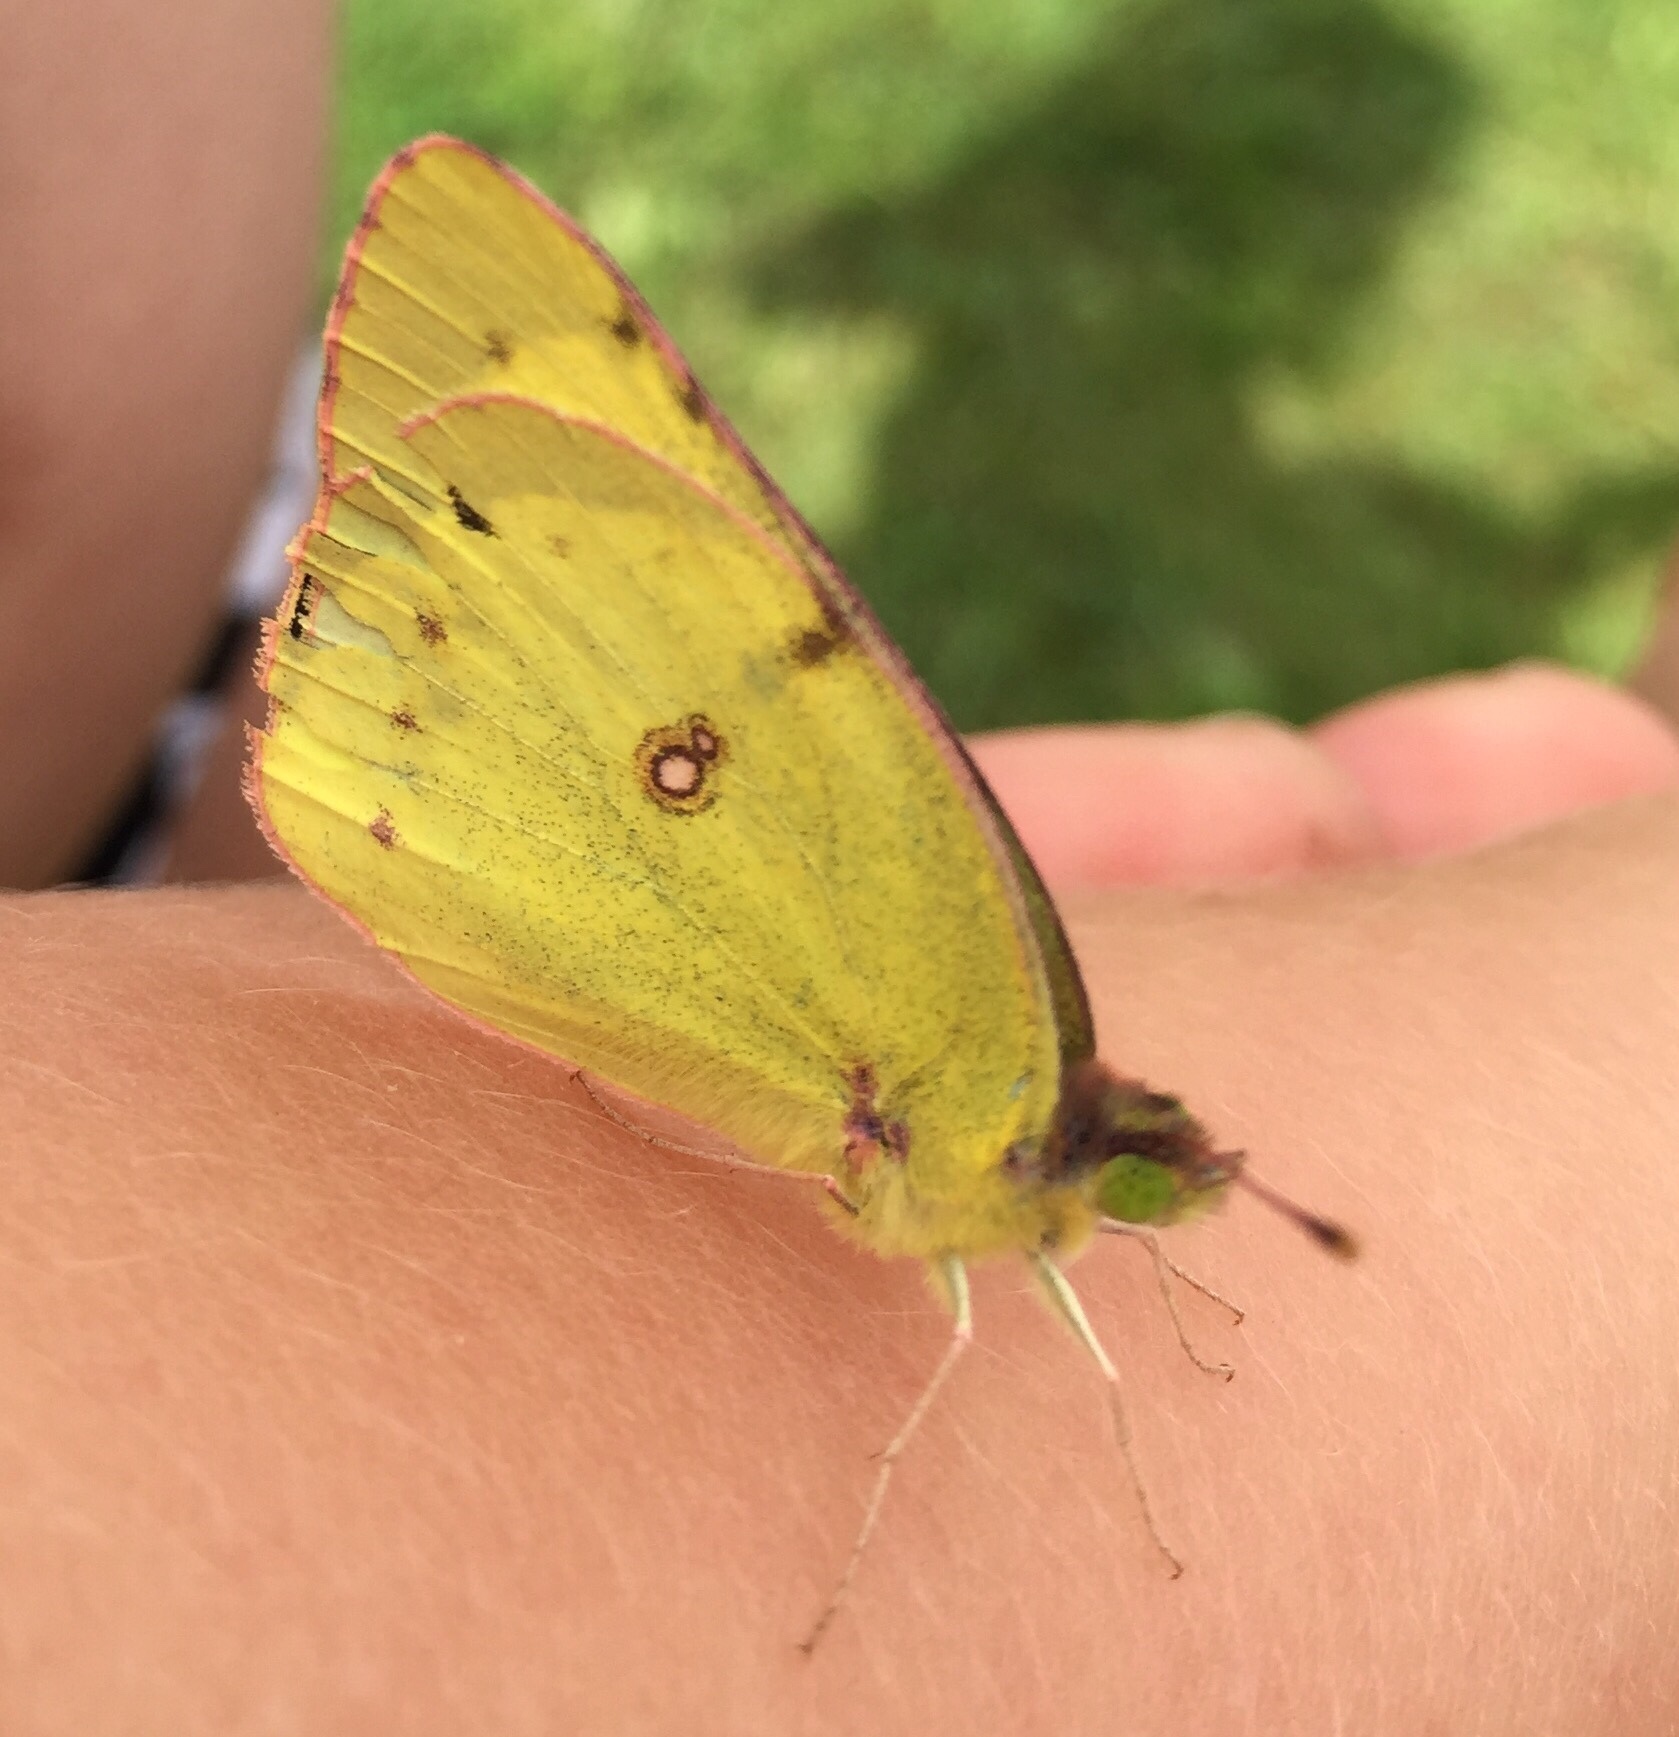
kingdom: Animalia
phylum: Arthropoda
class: Insecta
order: Lepidoptera
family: Pieridae
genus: Colias
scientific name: Colias philodice
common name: Clouded sulphur
